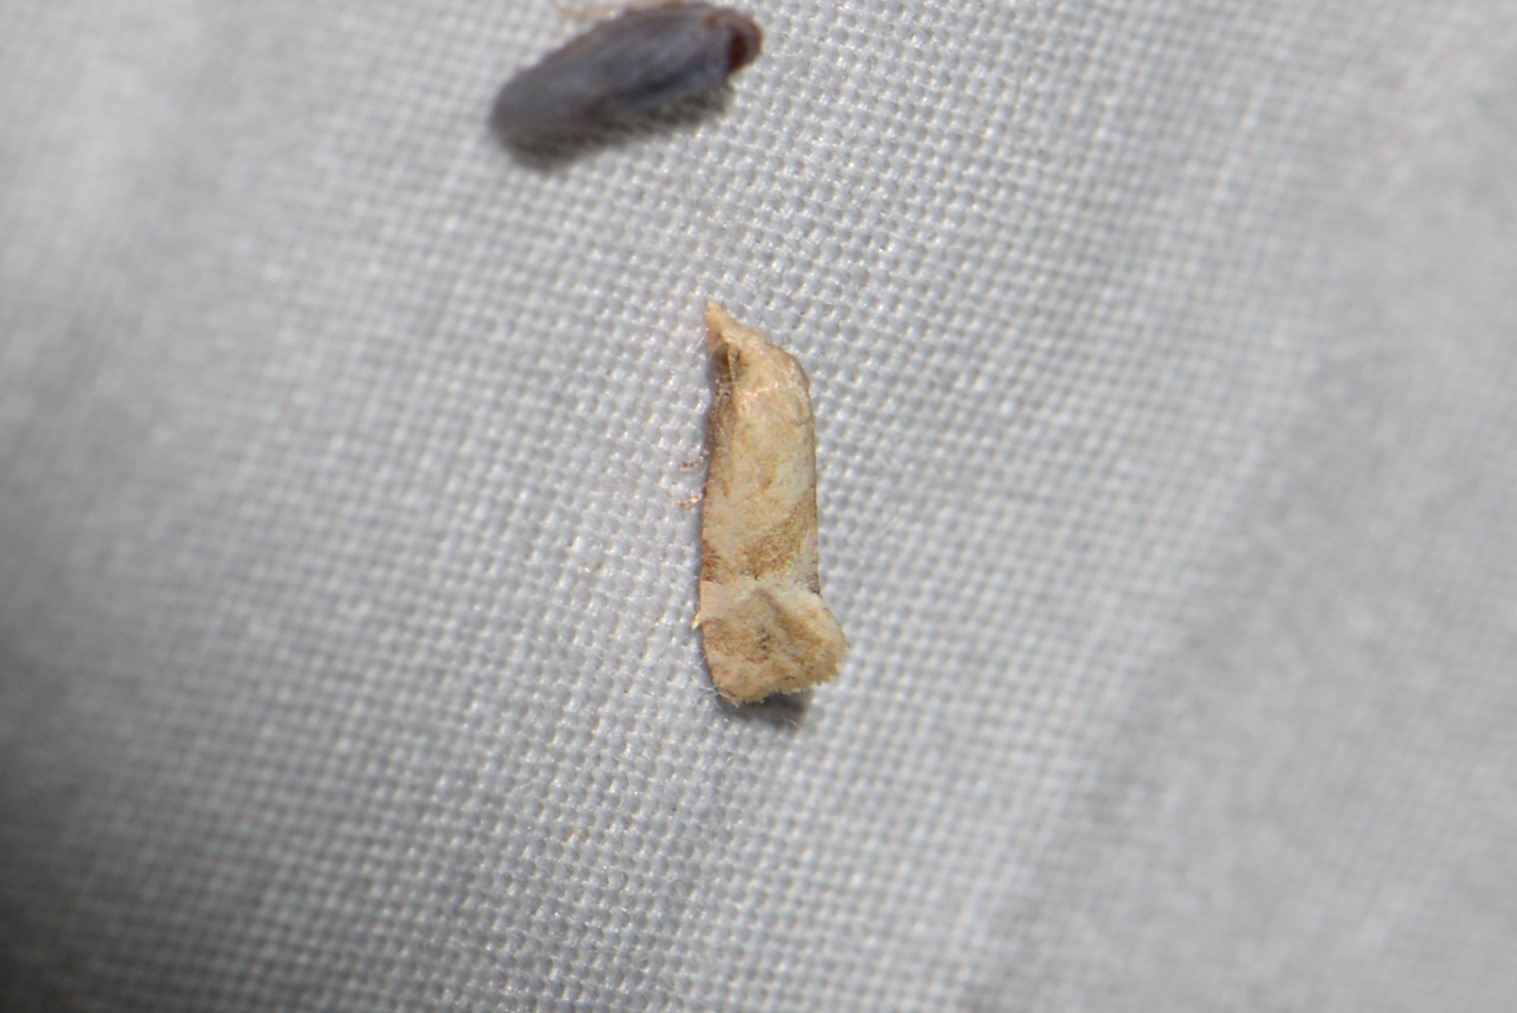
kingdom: Animalia
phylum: Arthropoda
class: Insecta
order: Lepidoptera
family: Tortricidae
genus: Phalonidia
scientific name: Phalonidia Platphalonidia magdalenae
